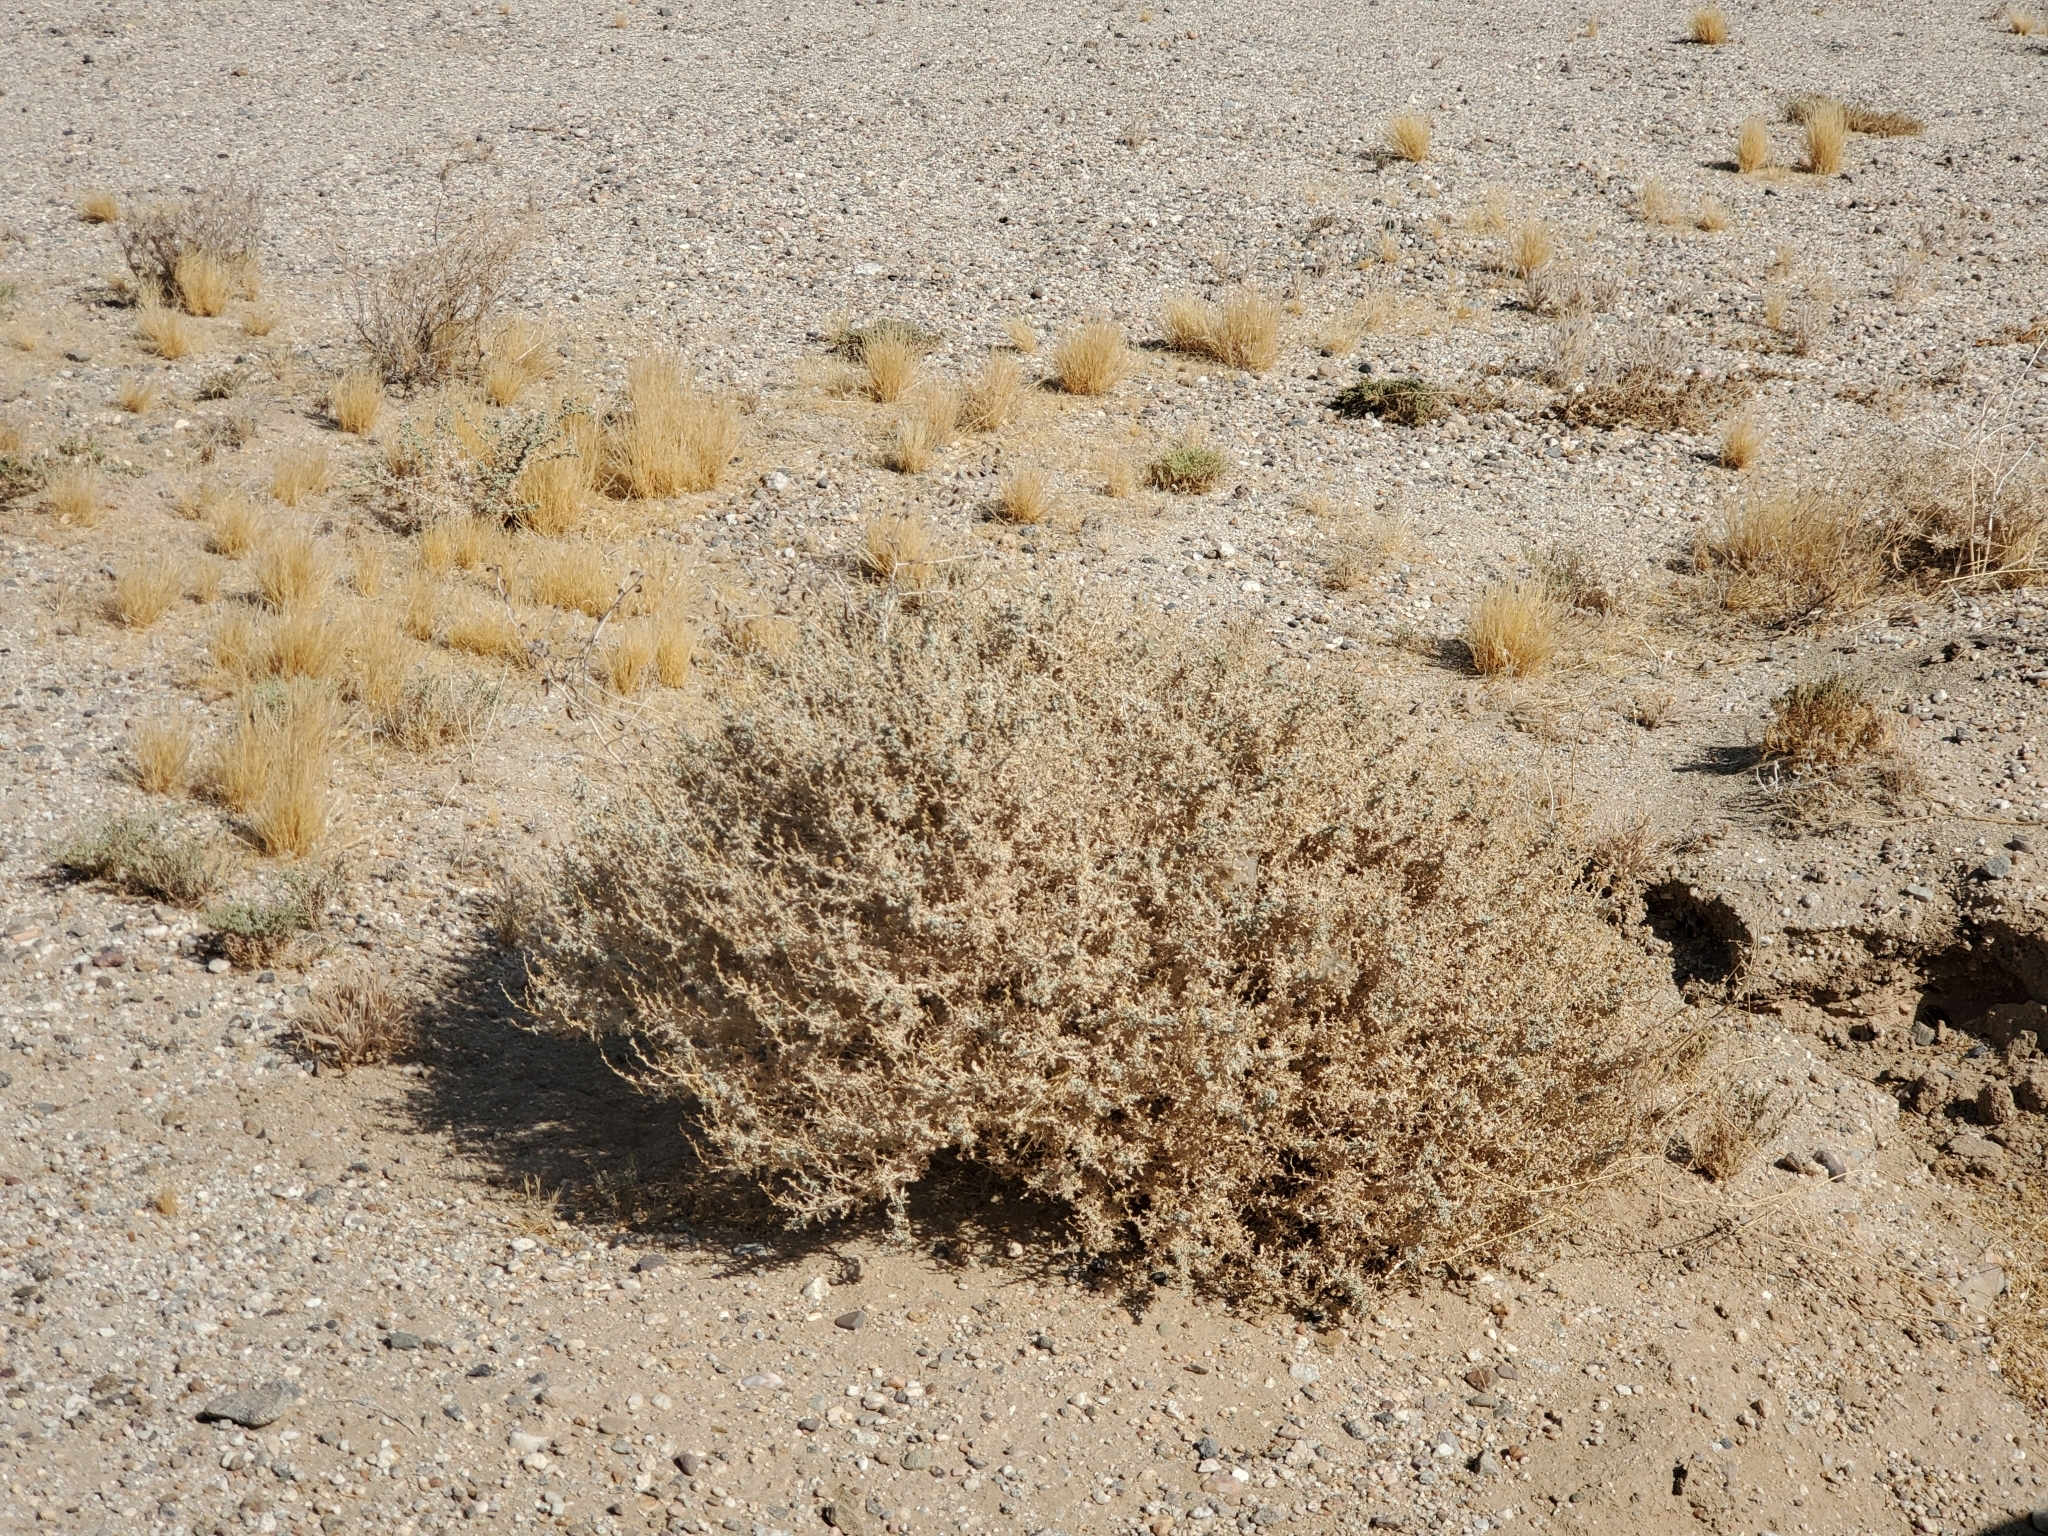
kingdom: Plantae
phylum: Tracheophyta
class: Magnoliopsida
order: Asterales
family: Asteraceae
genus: Ambrosia
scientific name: Ambrosia dumosa
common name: Bur-sage
